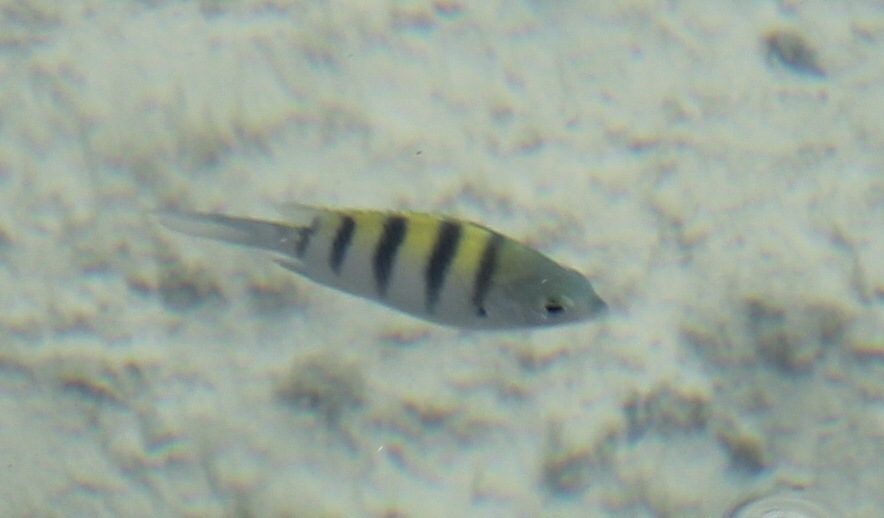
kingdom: Animalia
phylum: Chordata
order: Perciformes
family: Pomacentridae
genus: Abudefduf
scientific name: Abudefduf saxatilis
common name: Sergeant major
